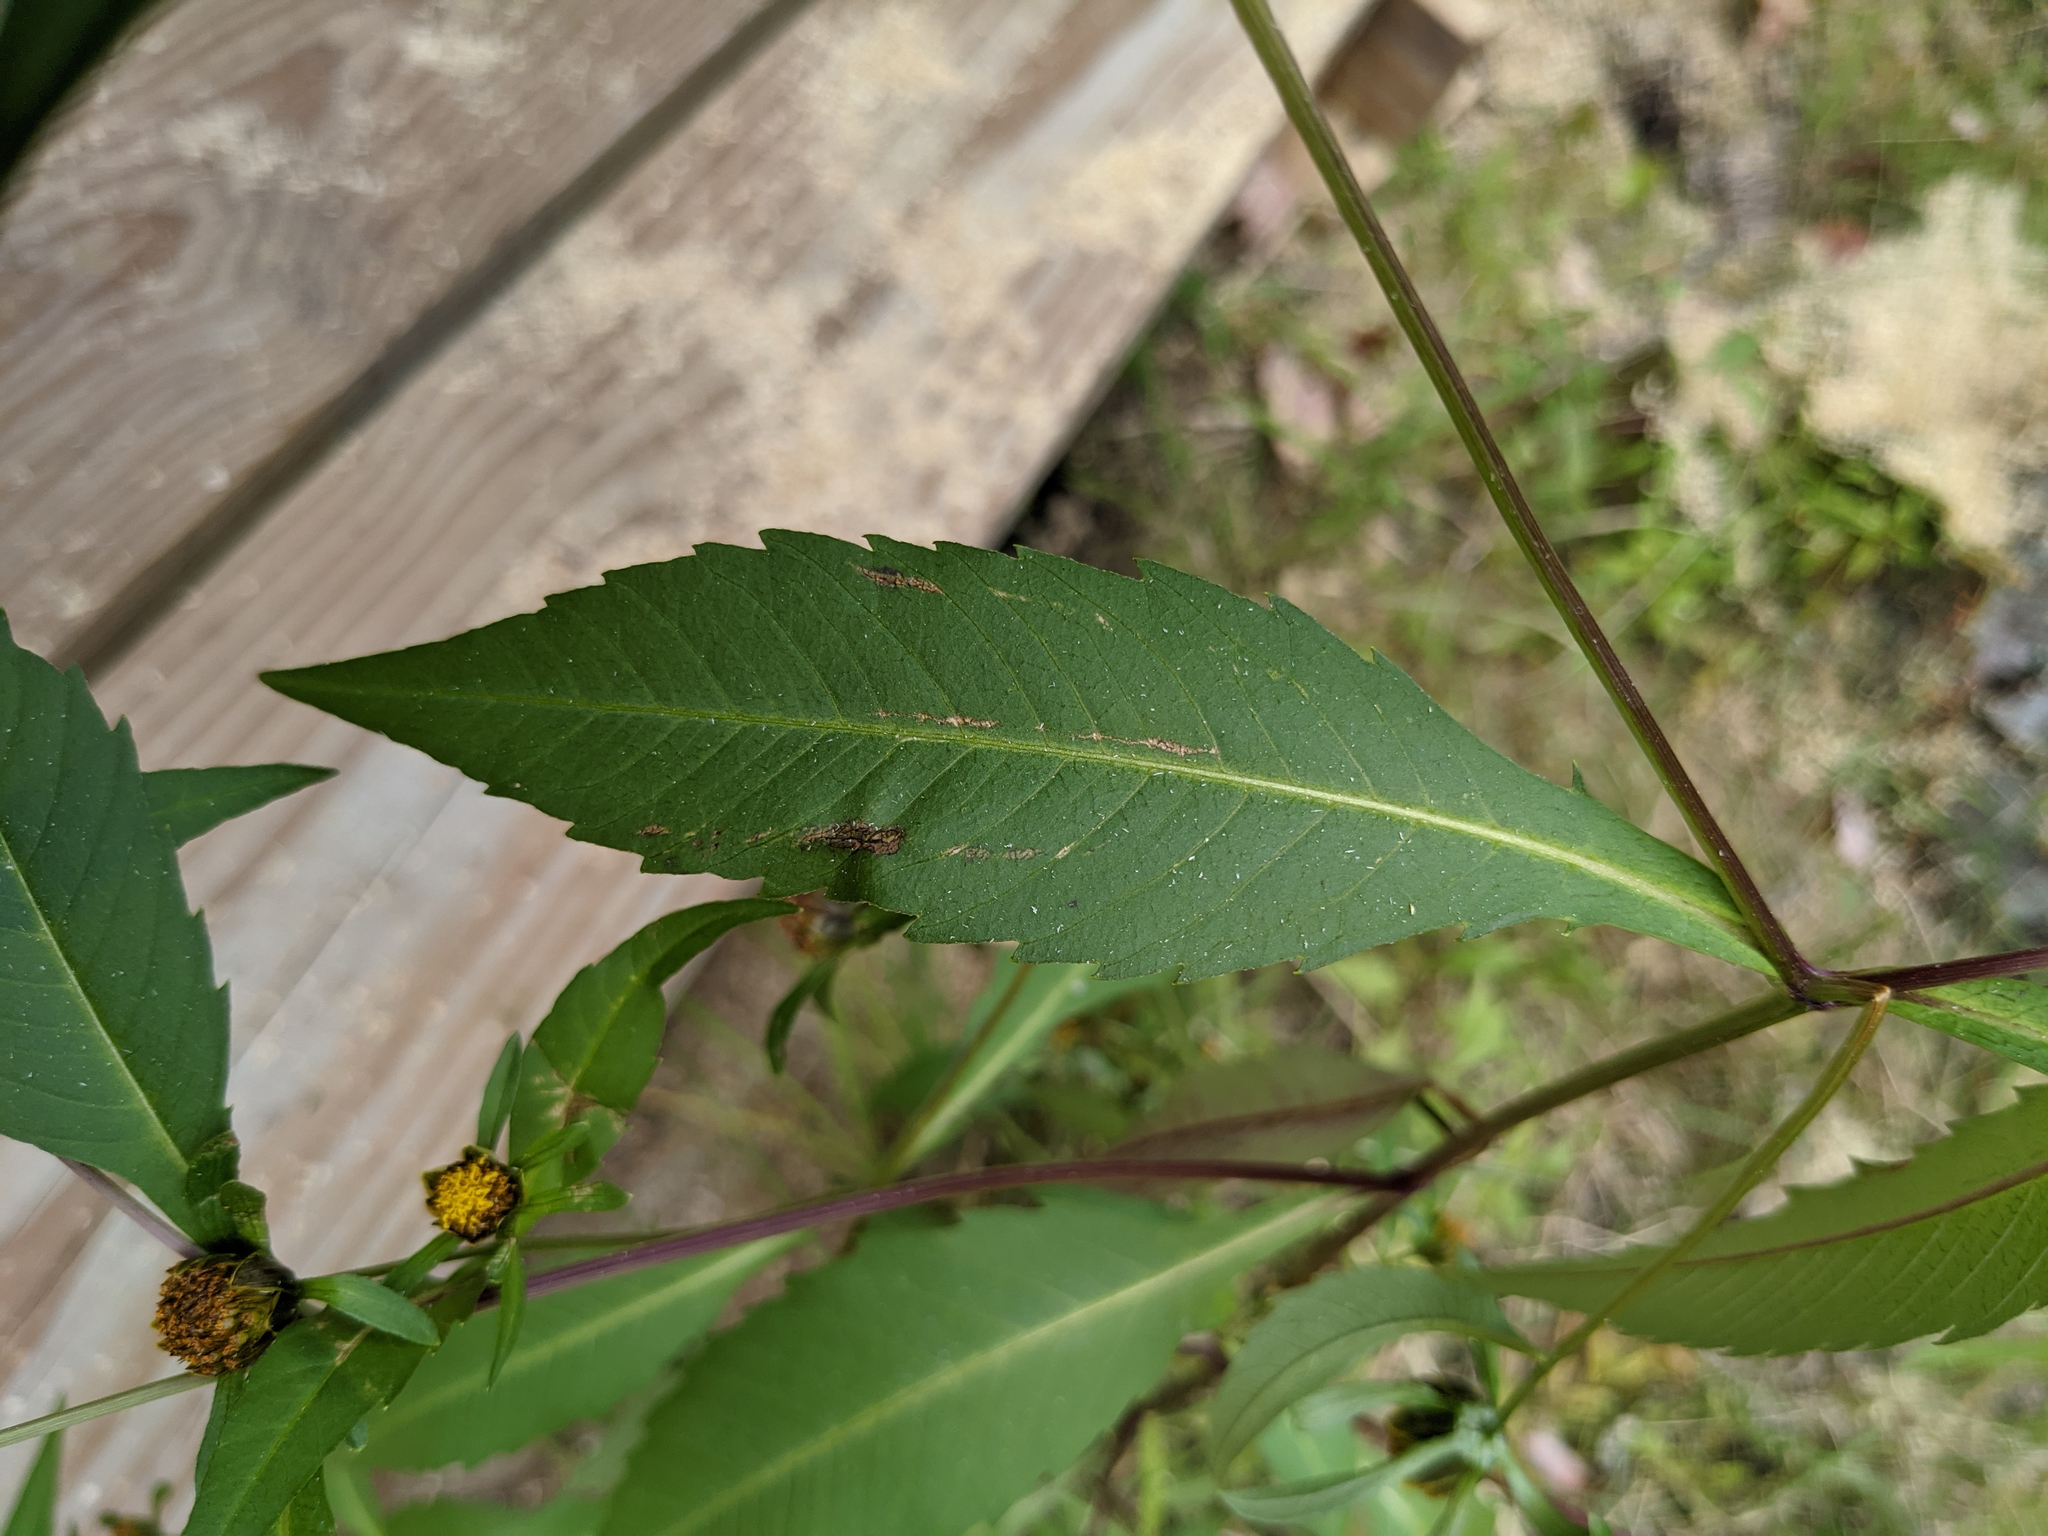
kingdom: Plantae
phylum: Tracheophyta
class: Magnoliopsida
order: Asterales
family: Asteraceae
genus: Bidens
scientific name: Bidens connata
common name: London bur-marigold
